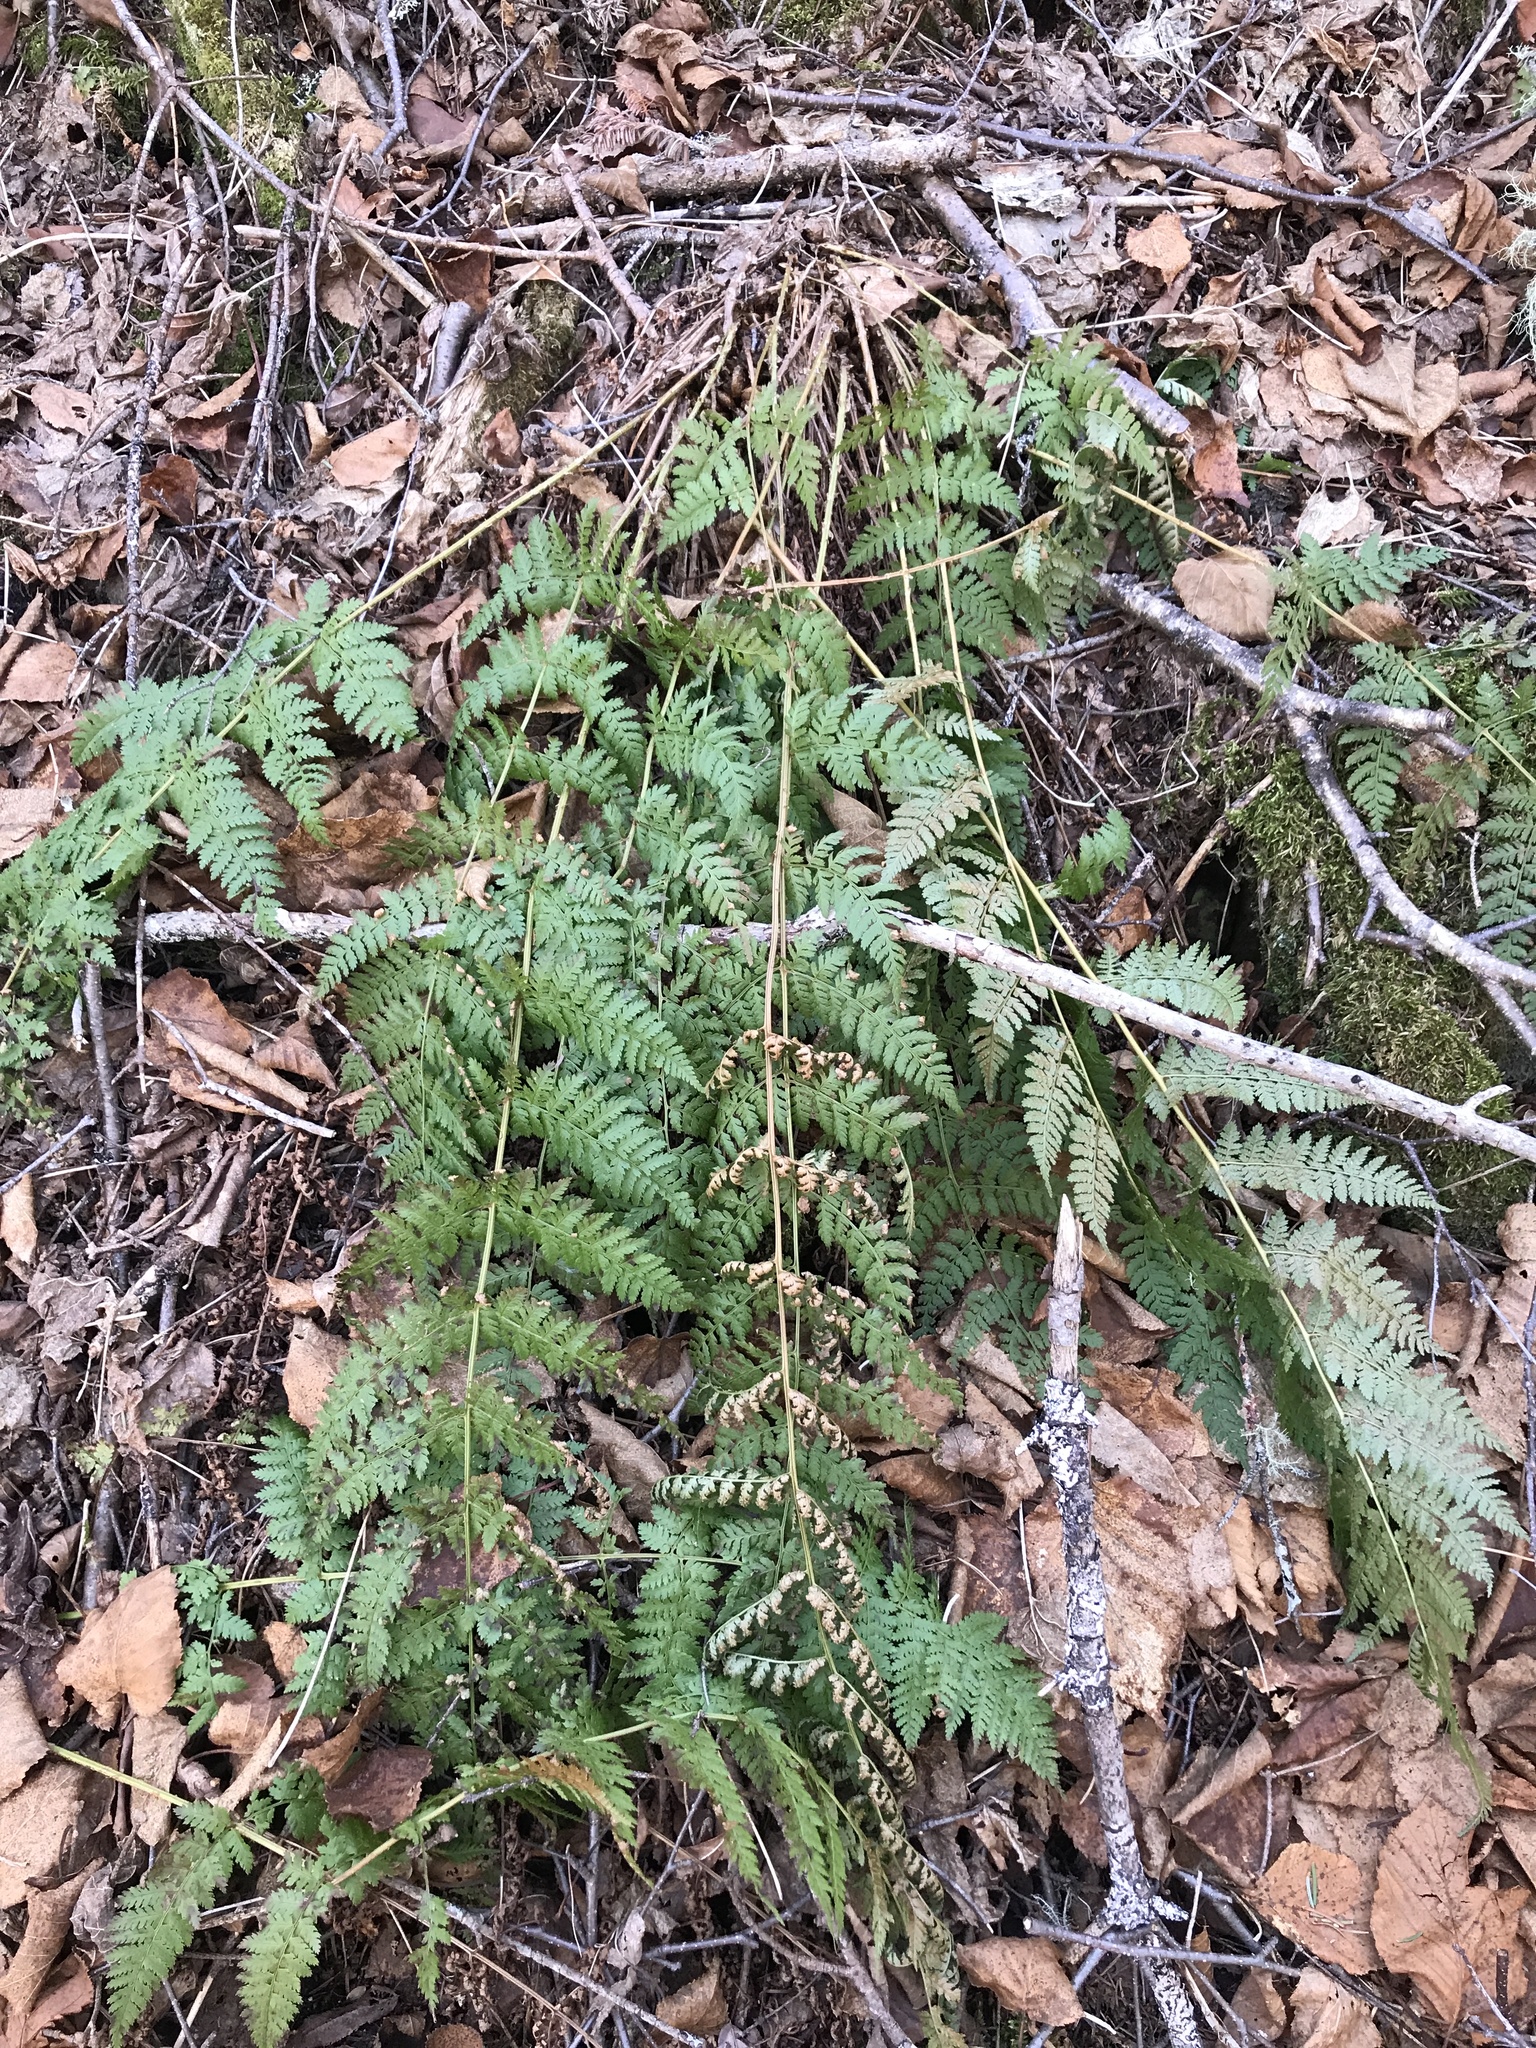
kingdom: Plantae
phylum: Tracheophyta
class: Polypodiopsida
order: Polypodiales
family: Dryopteridaceae
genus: Dryopteris
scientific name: Dryopteris intermedia
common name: Evergreen wood fern
